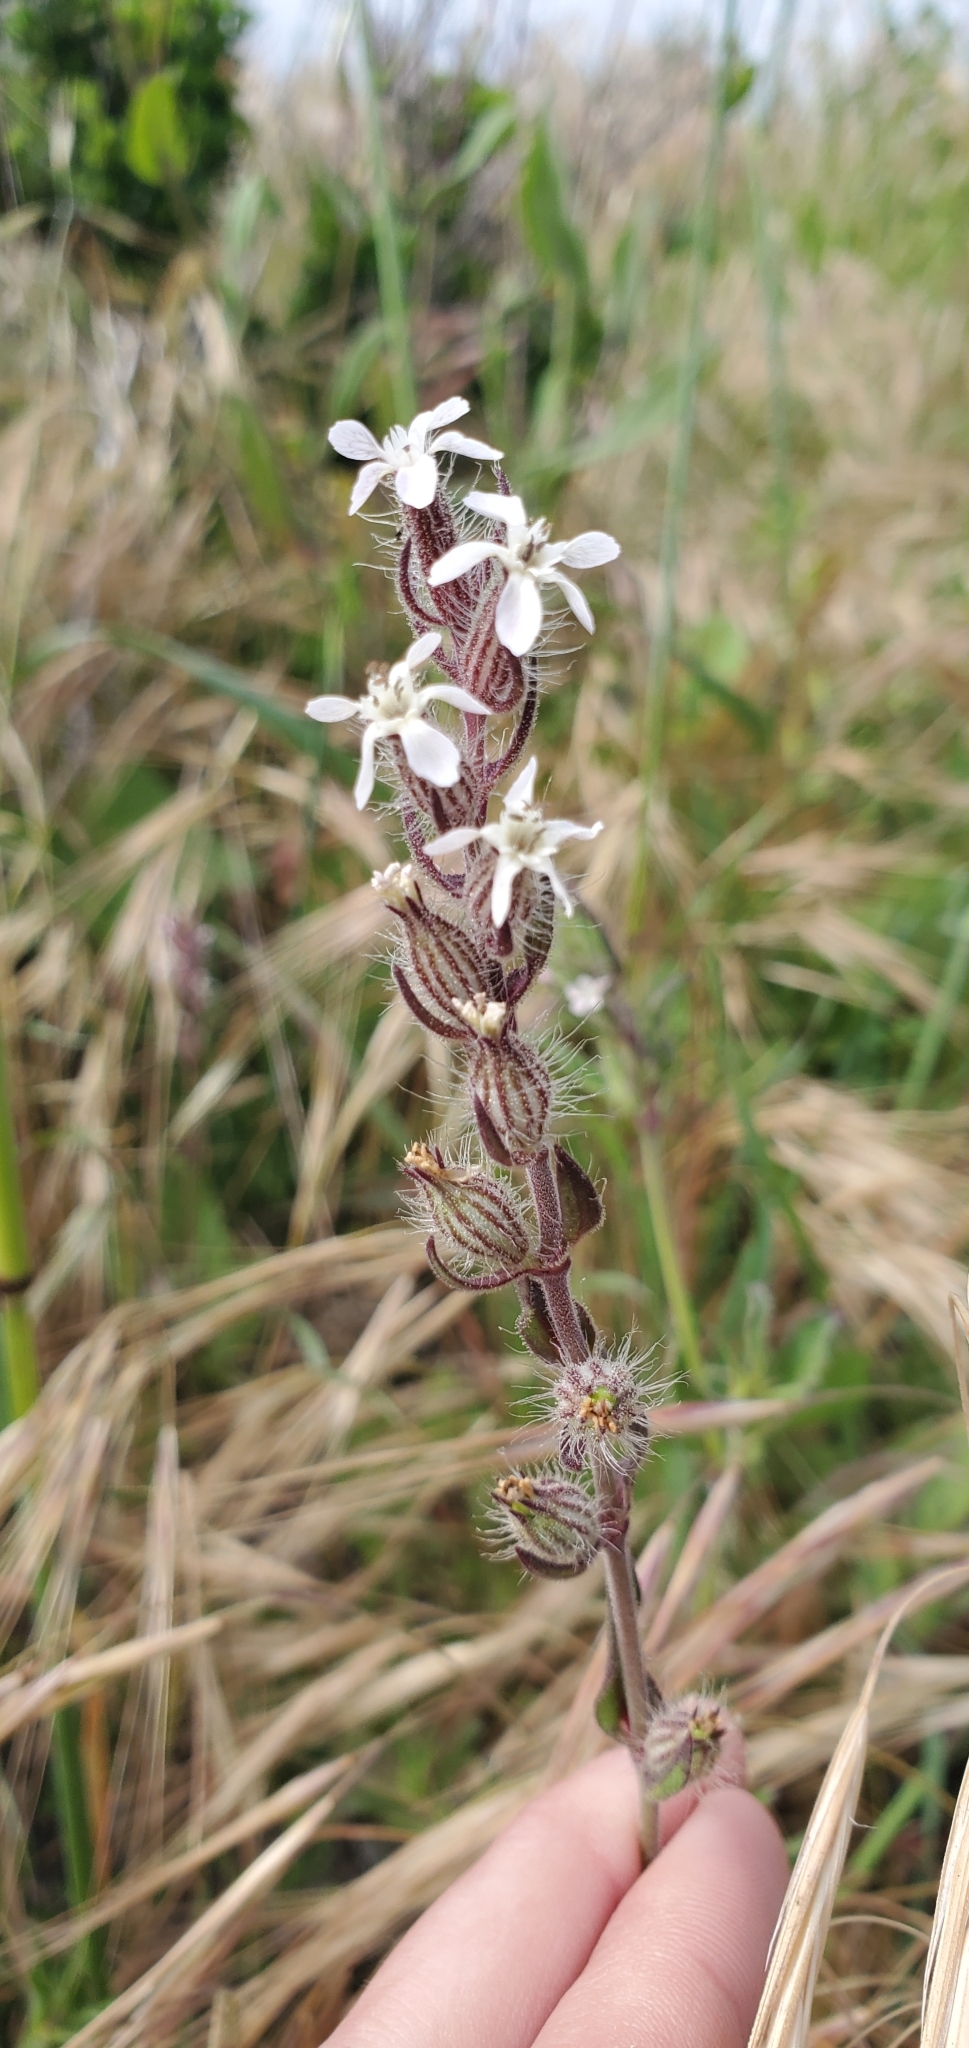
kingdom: Plantae
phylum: Tracheophyta
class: Magnoliopsida
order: Caryophyllales
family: Caryophyllaceae
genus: Silene
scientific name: Silene gallica
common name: Small-flowered catchfly
